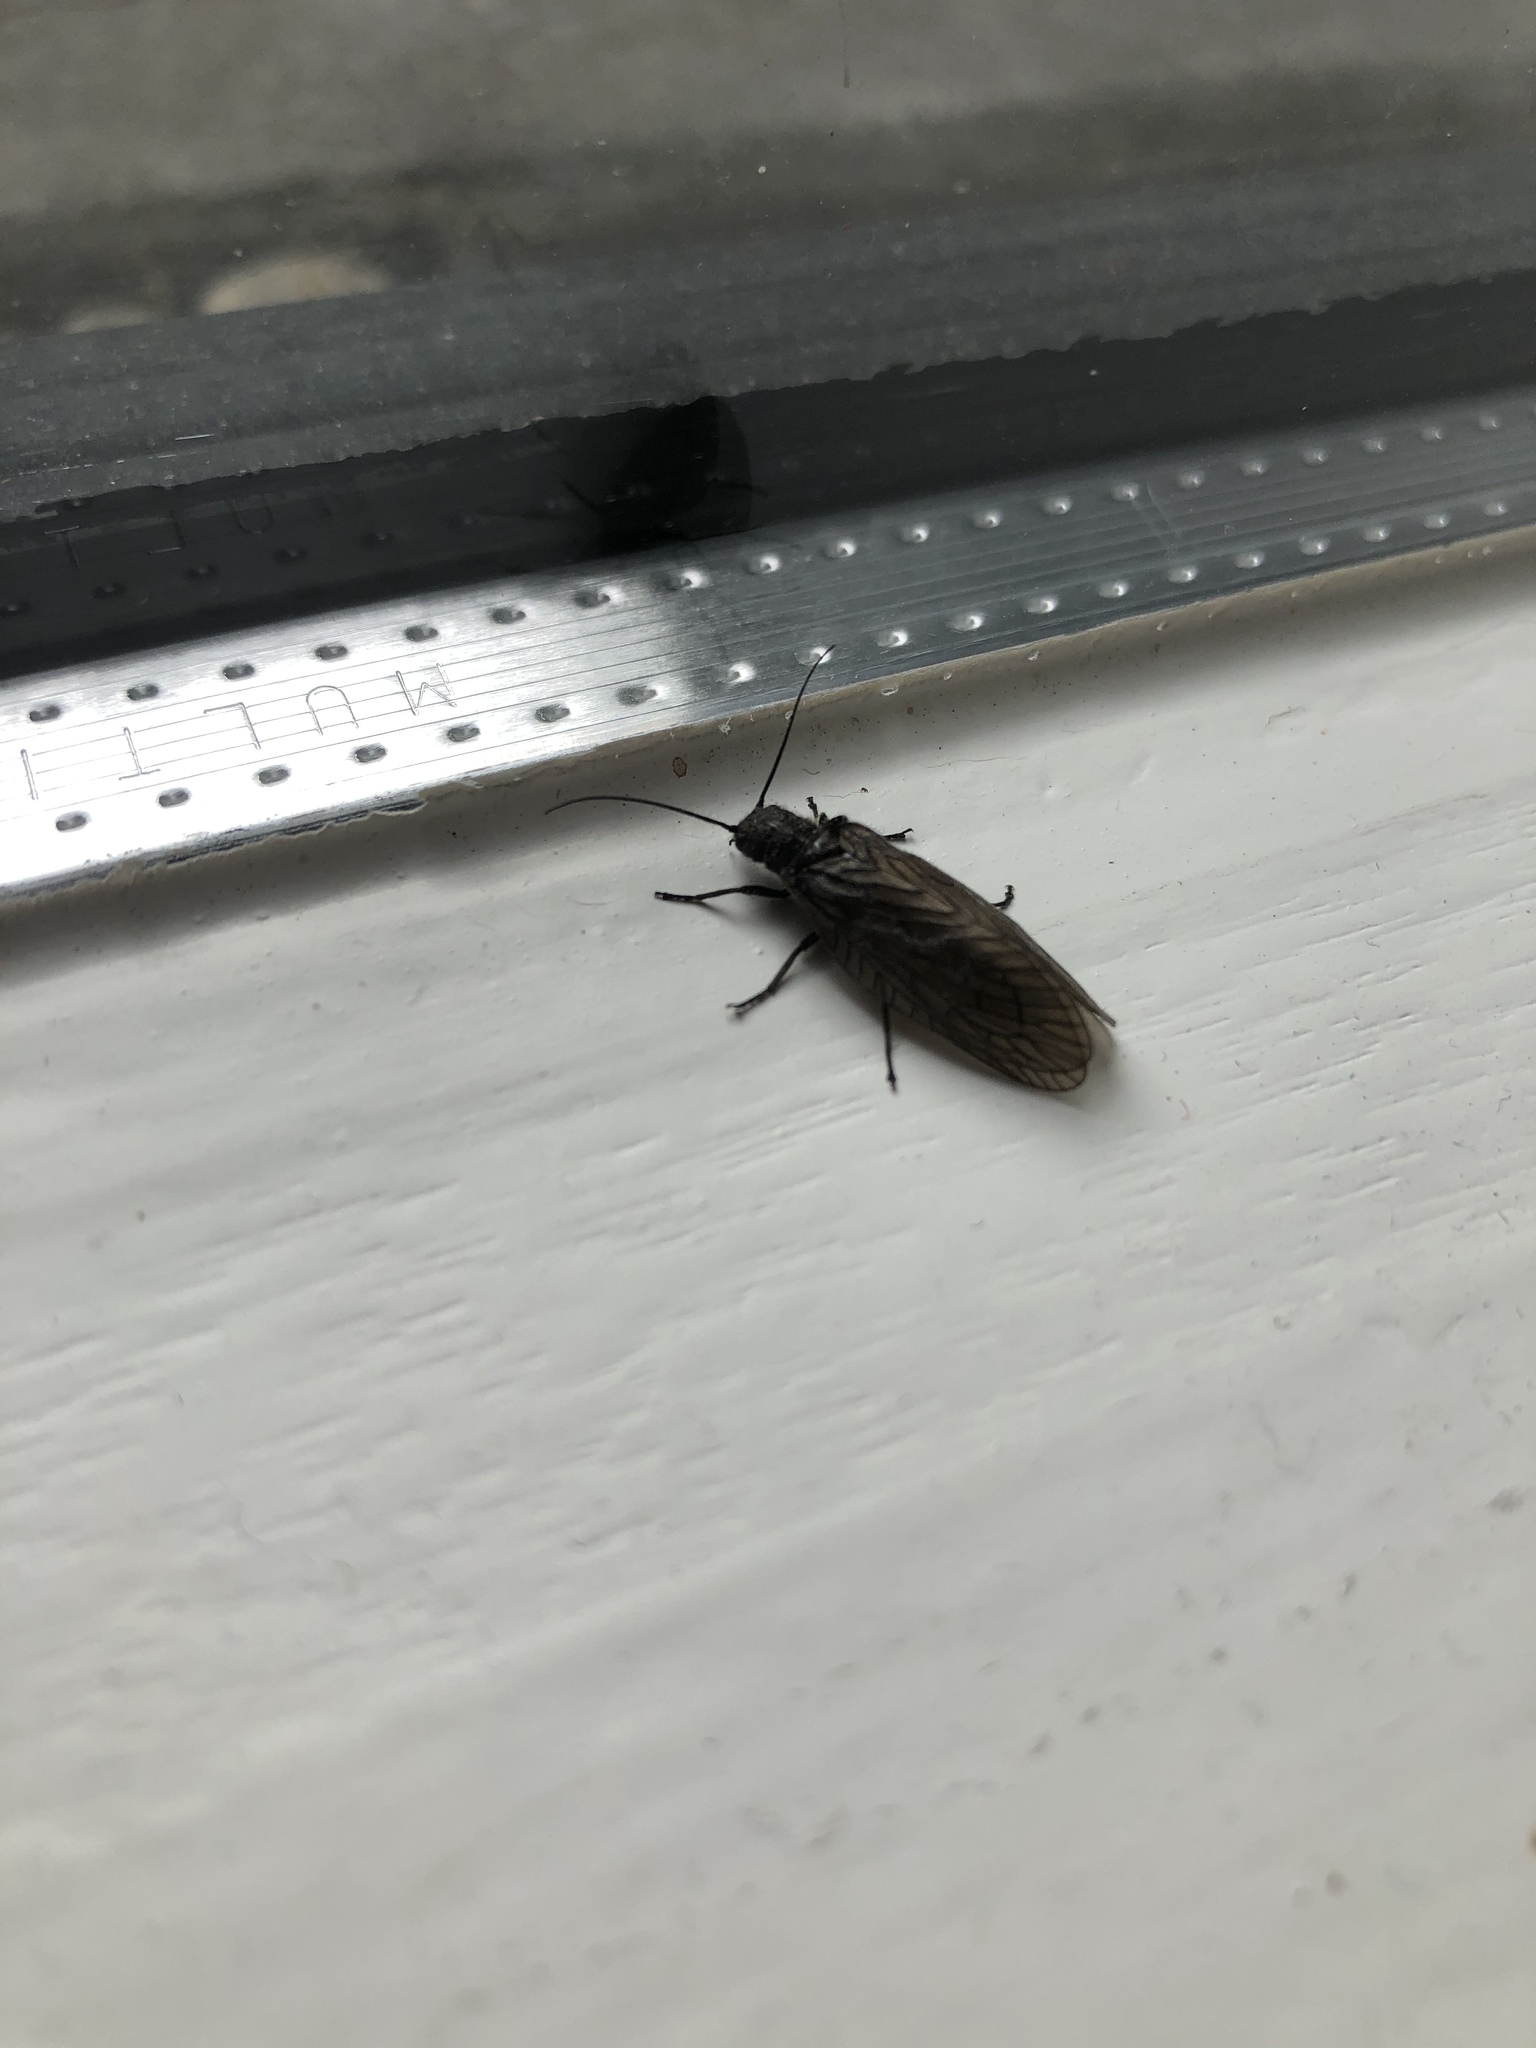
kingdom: Animalia
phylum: Arthropoda
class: Insecta
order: Megaloptera
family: Sialidae
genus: Sialis
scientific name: Sialis
